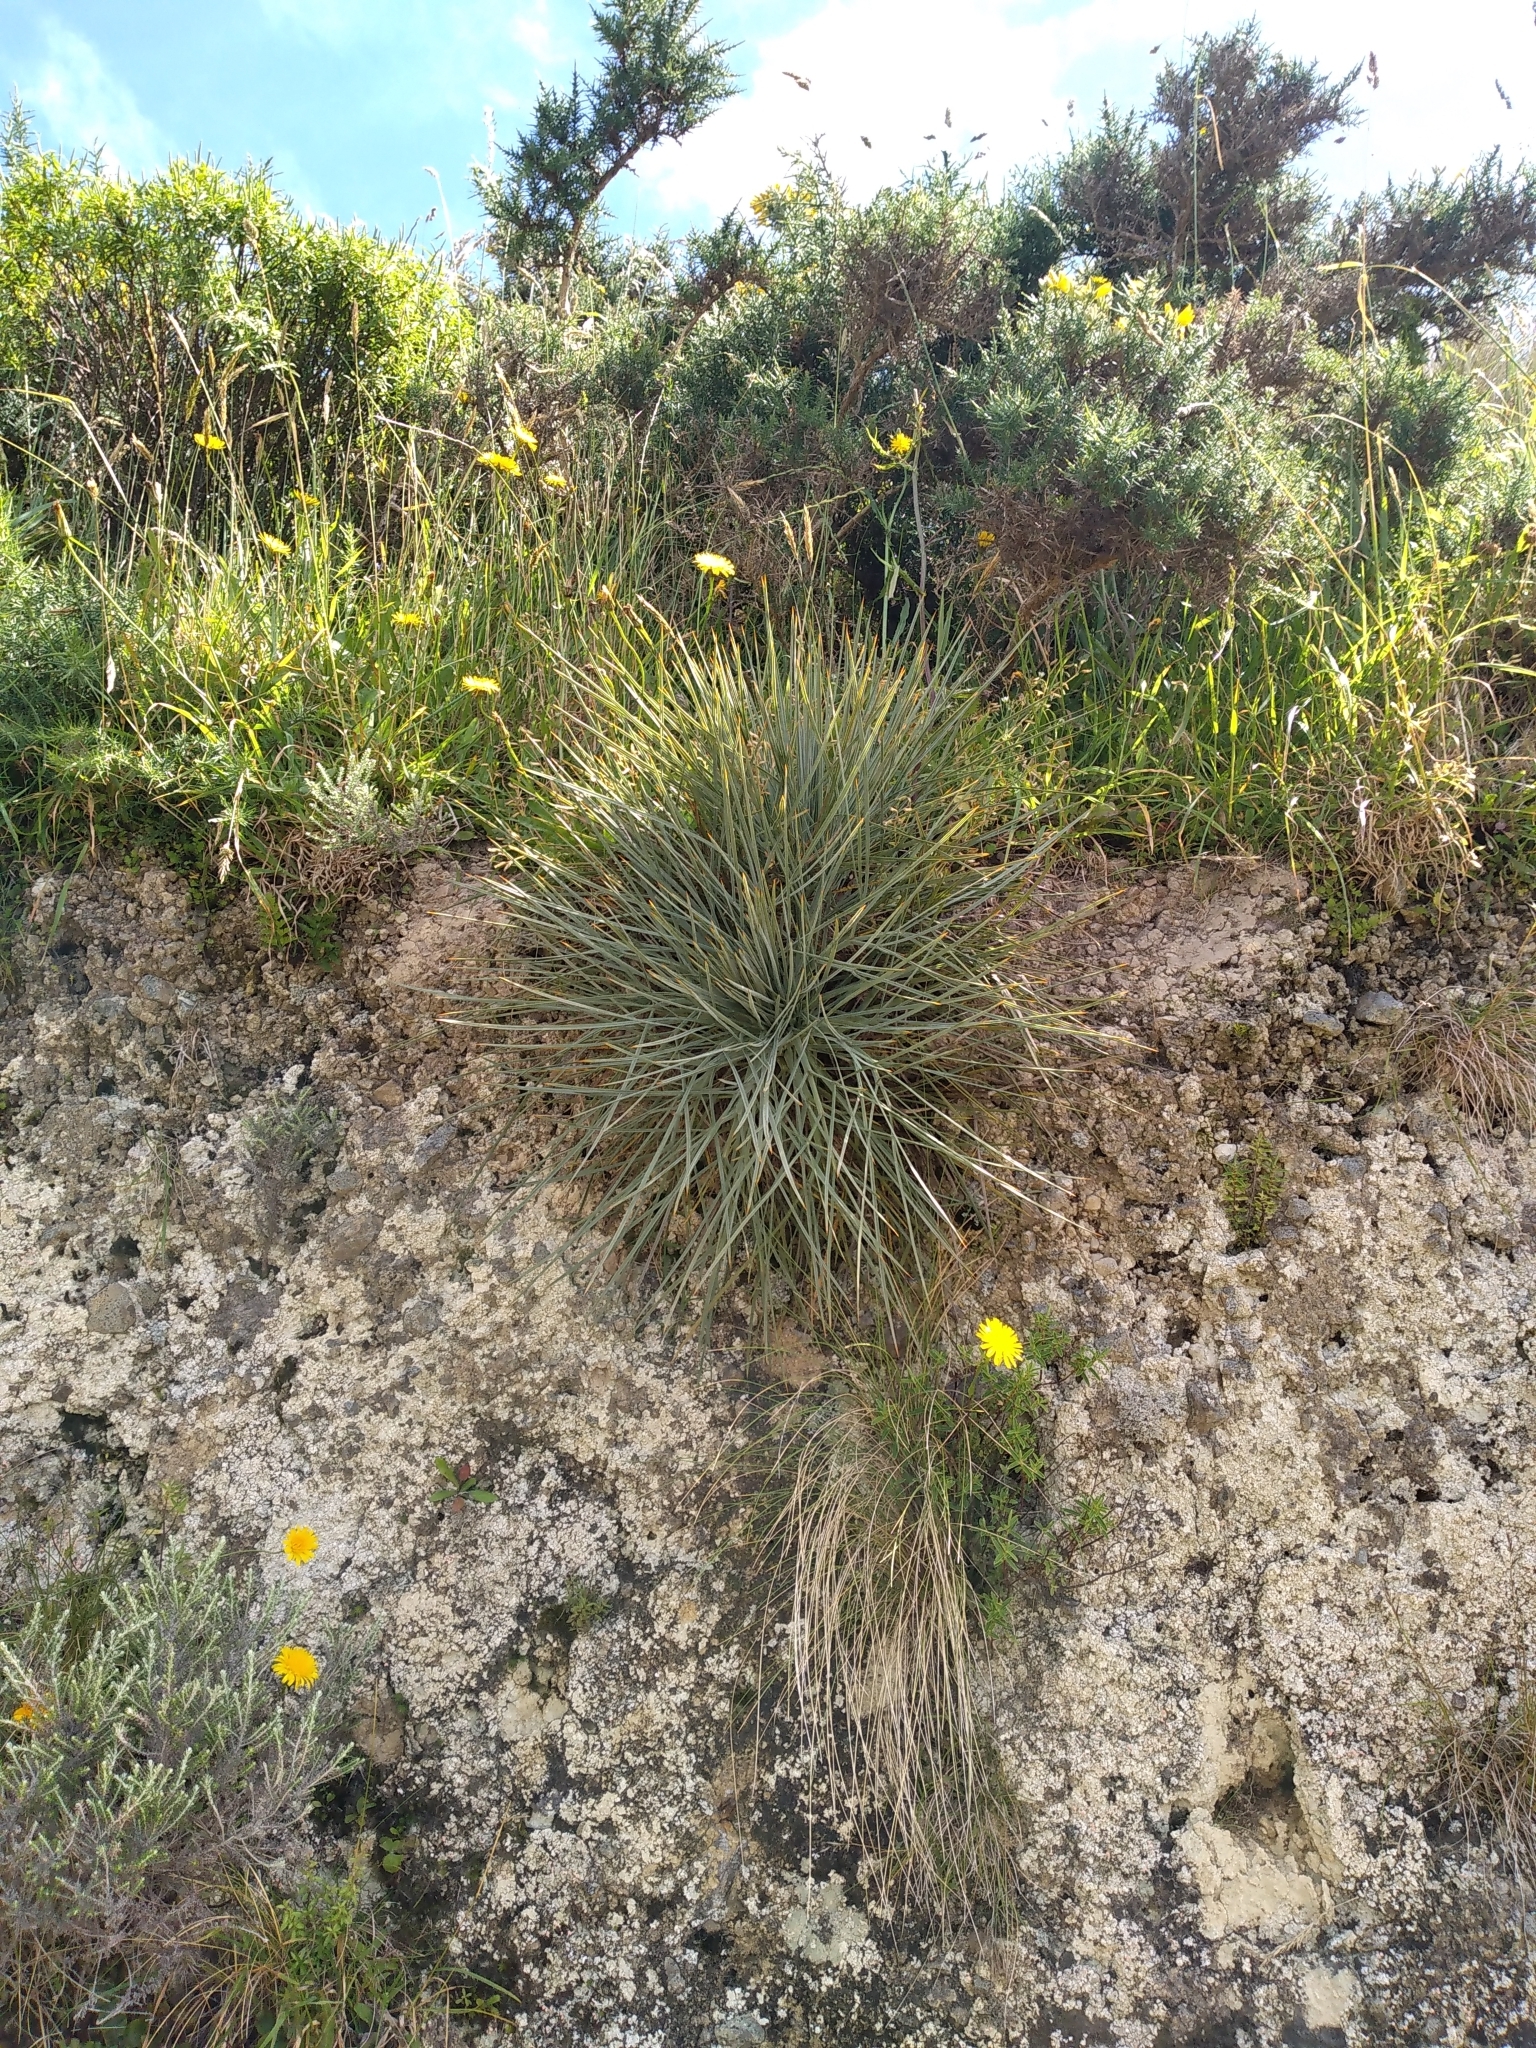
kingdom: Plantae
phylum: Tracheophyta
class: Magnoliopsida
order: Apiales
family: Apiaceae
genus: Aciphylla
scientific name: Aciphylla squarrosa
